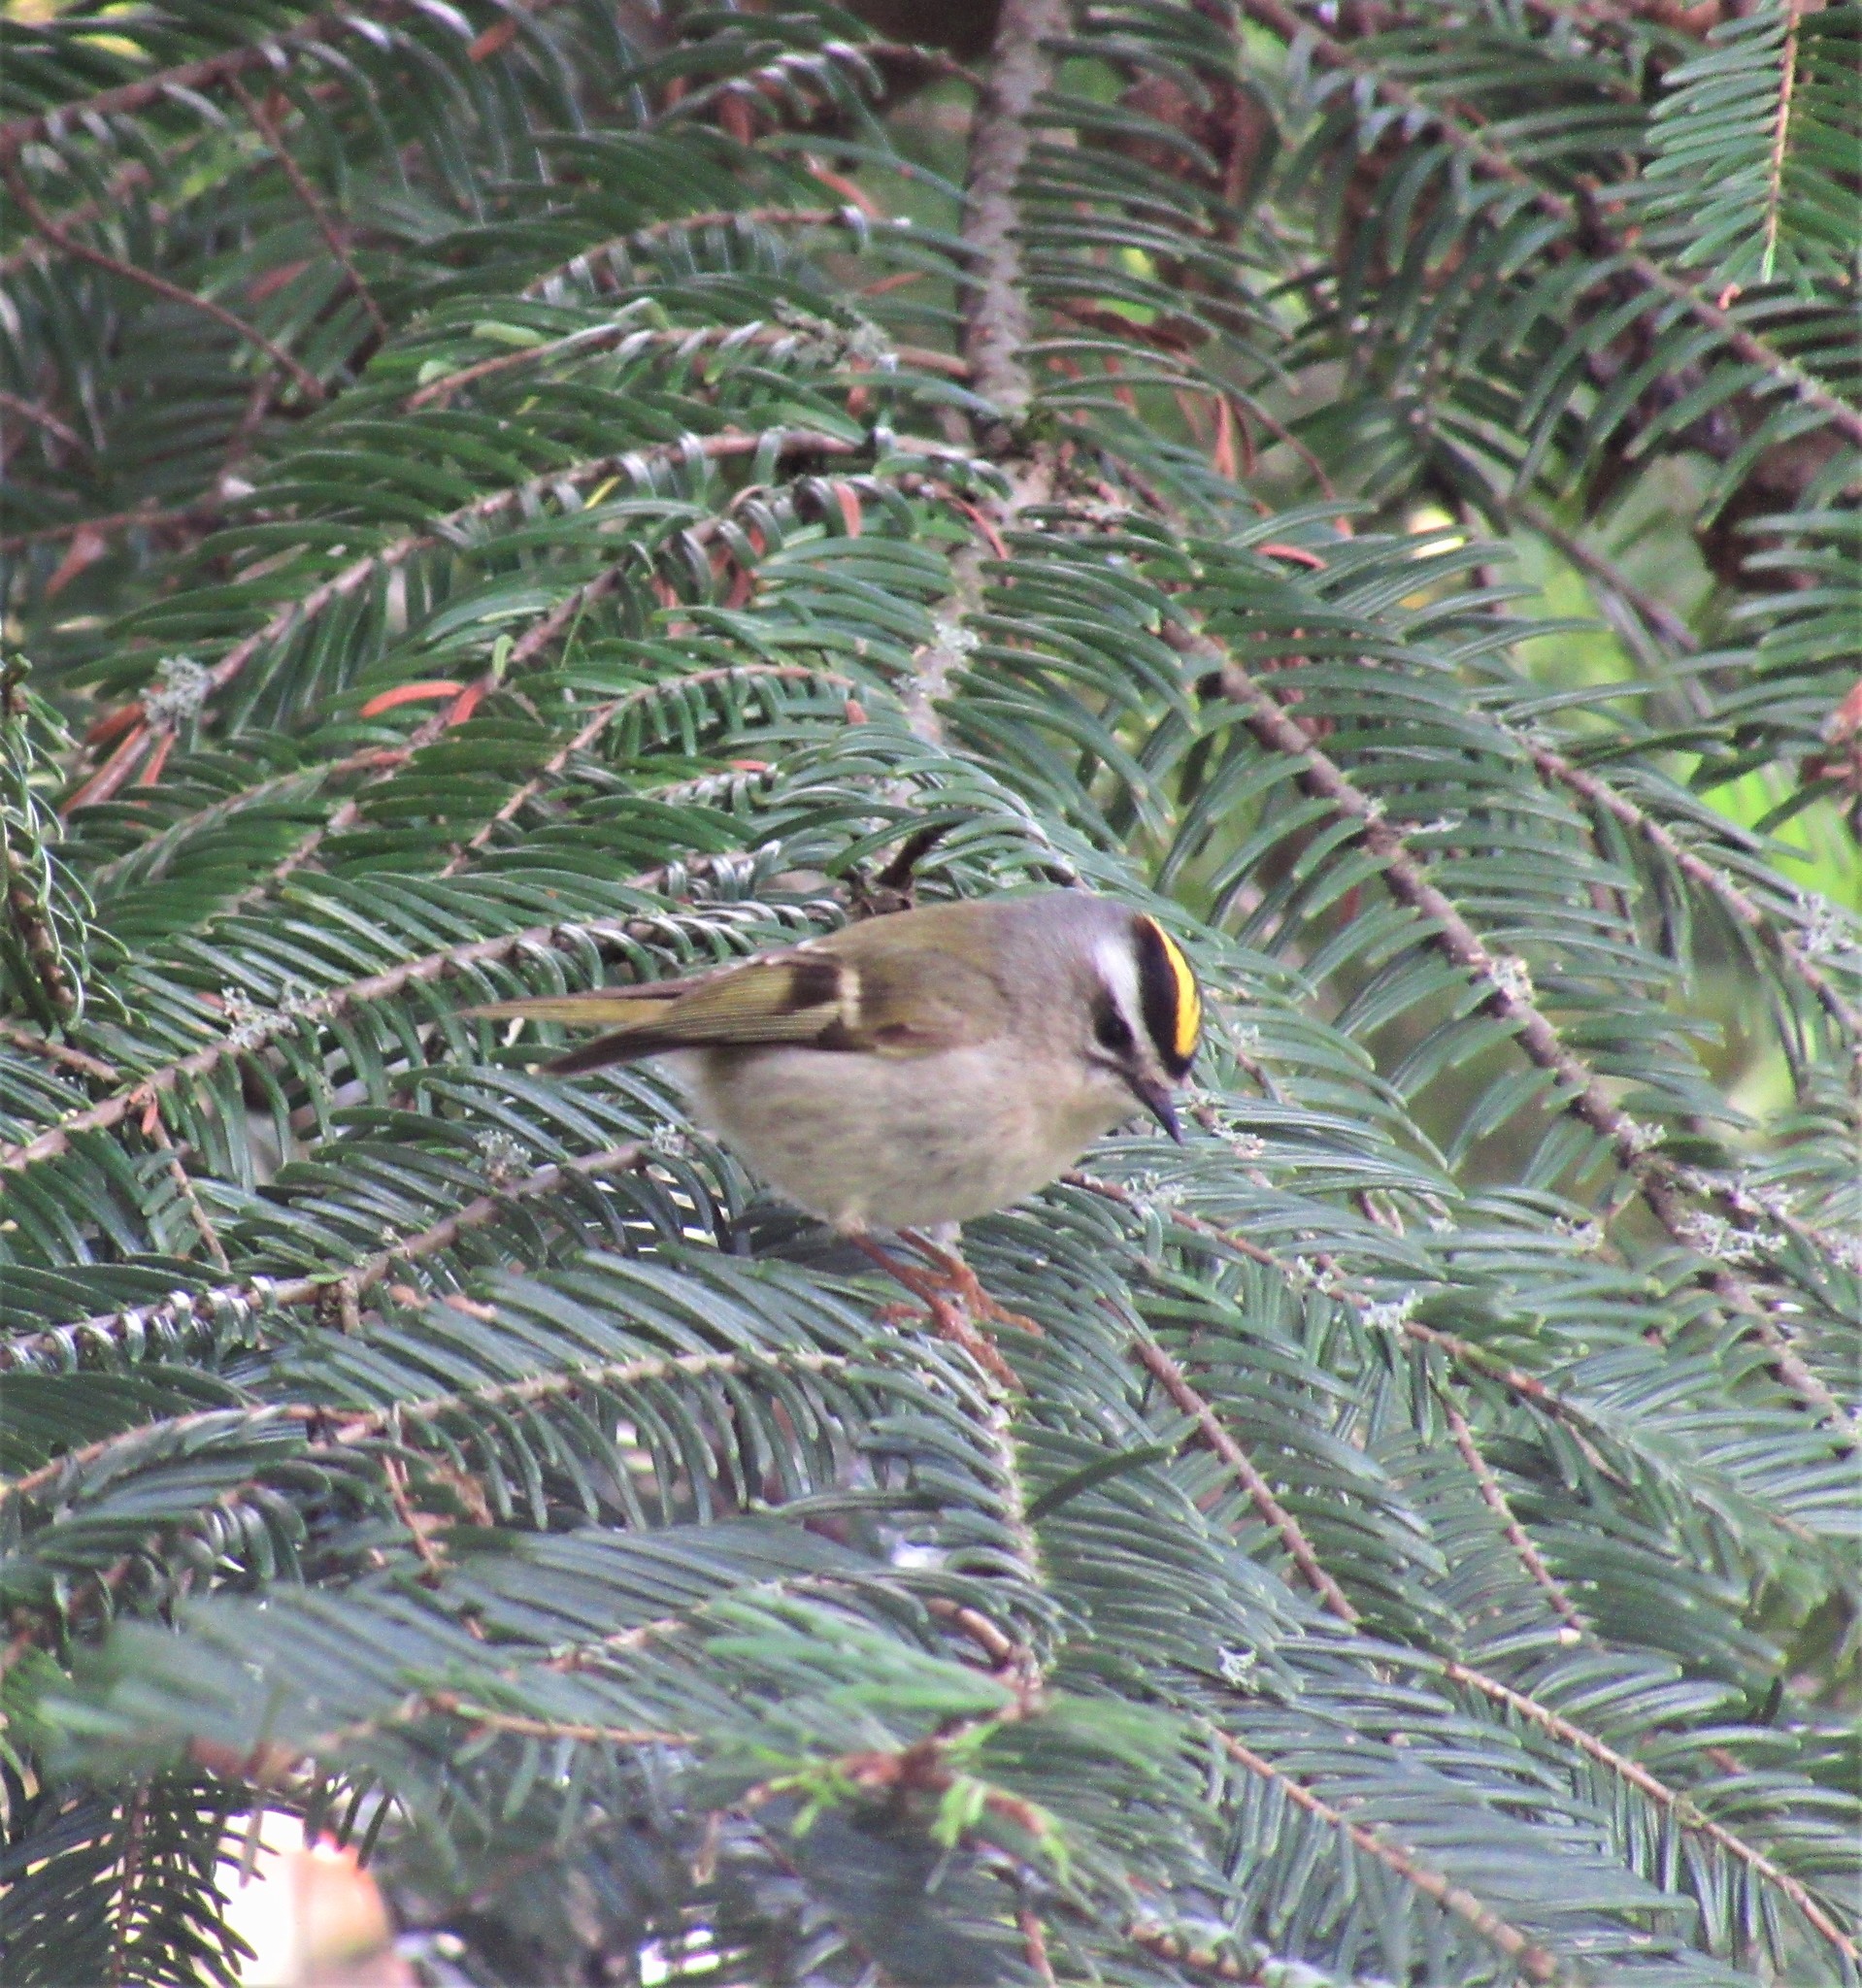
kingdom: Animalia
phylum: Chordata
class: Aves
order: Passeriformes
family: Regulidae
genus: Regulus
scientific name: Regulus satrapa
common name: Golden-crowned kinglet
